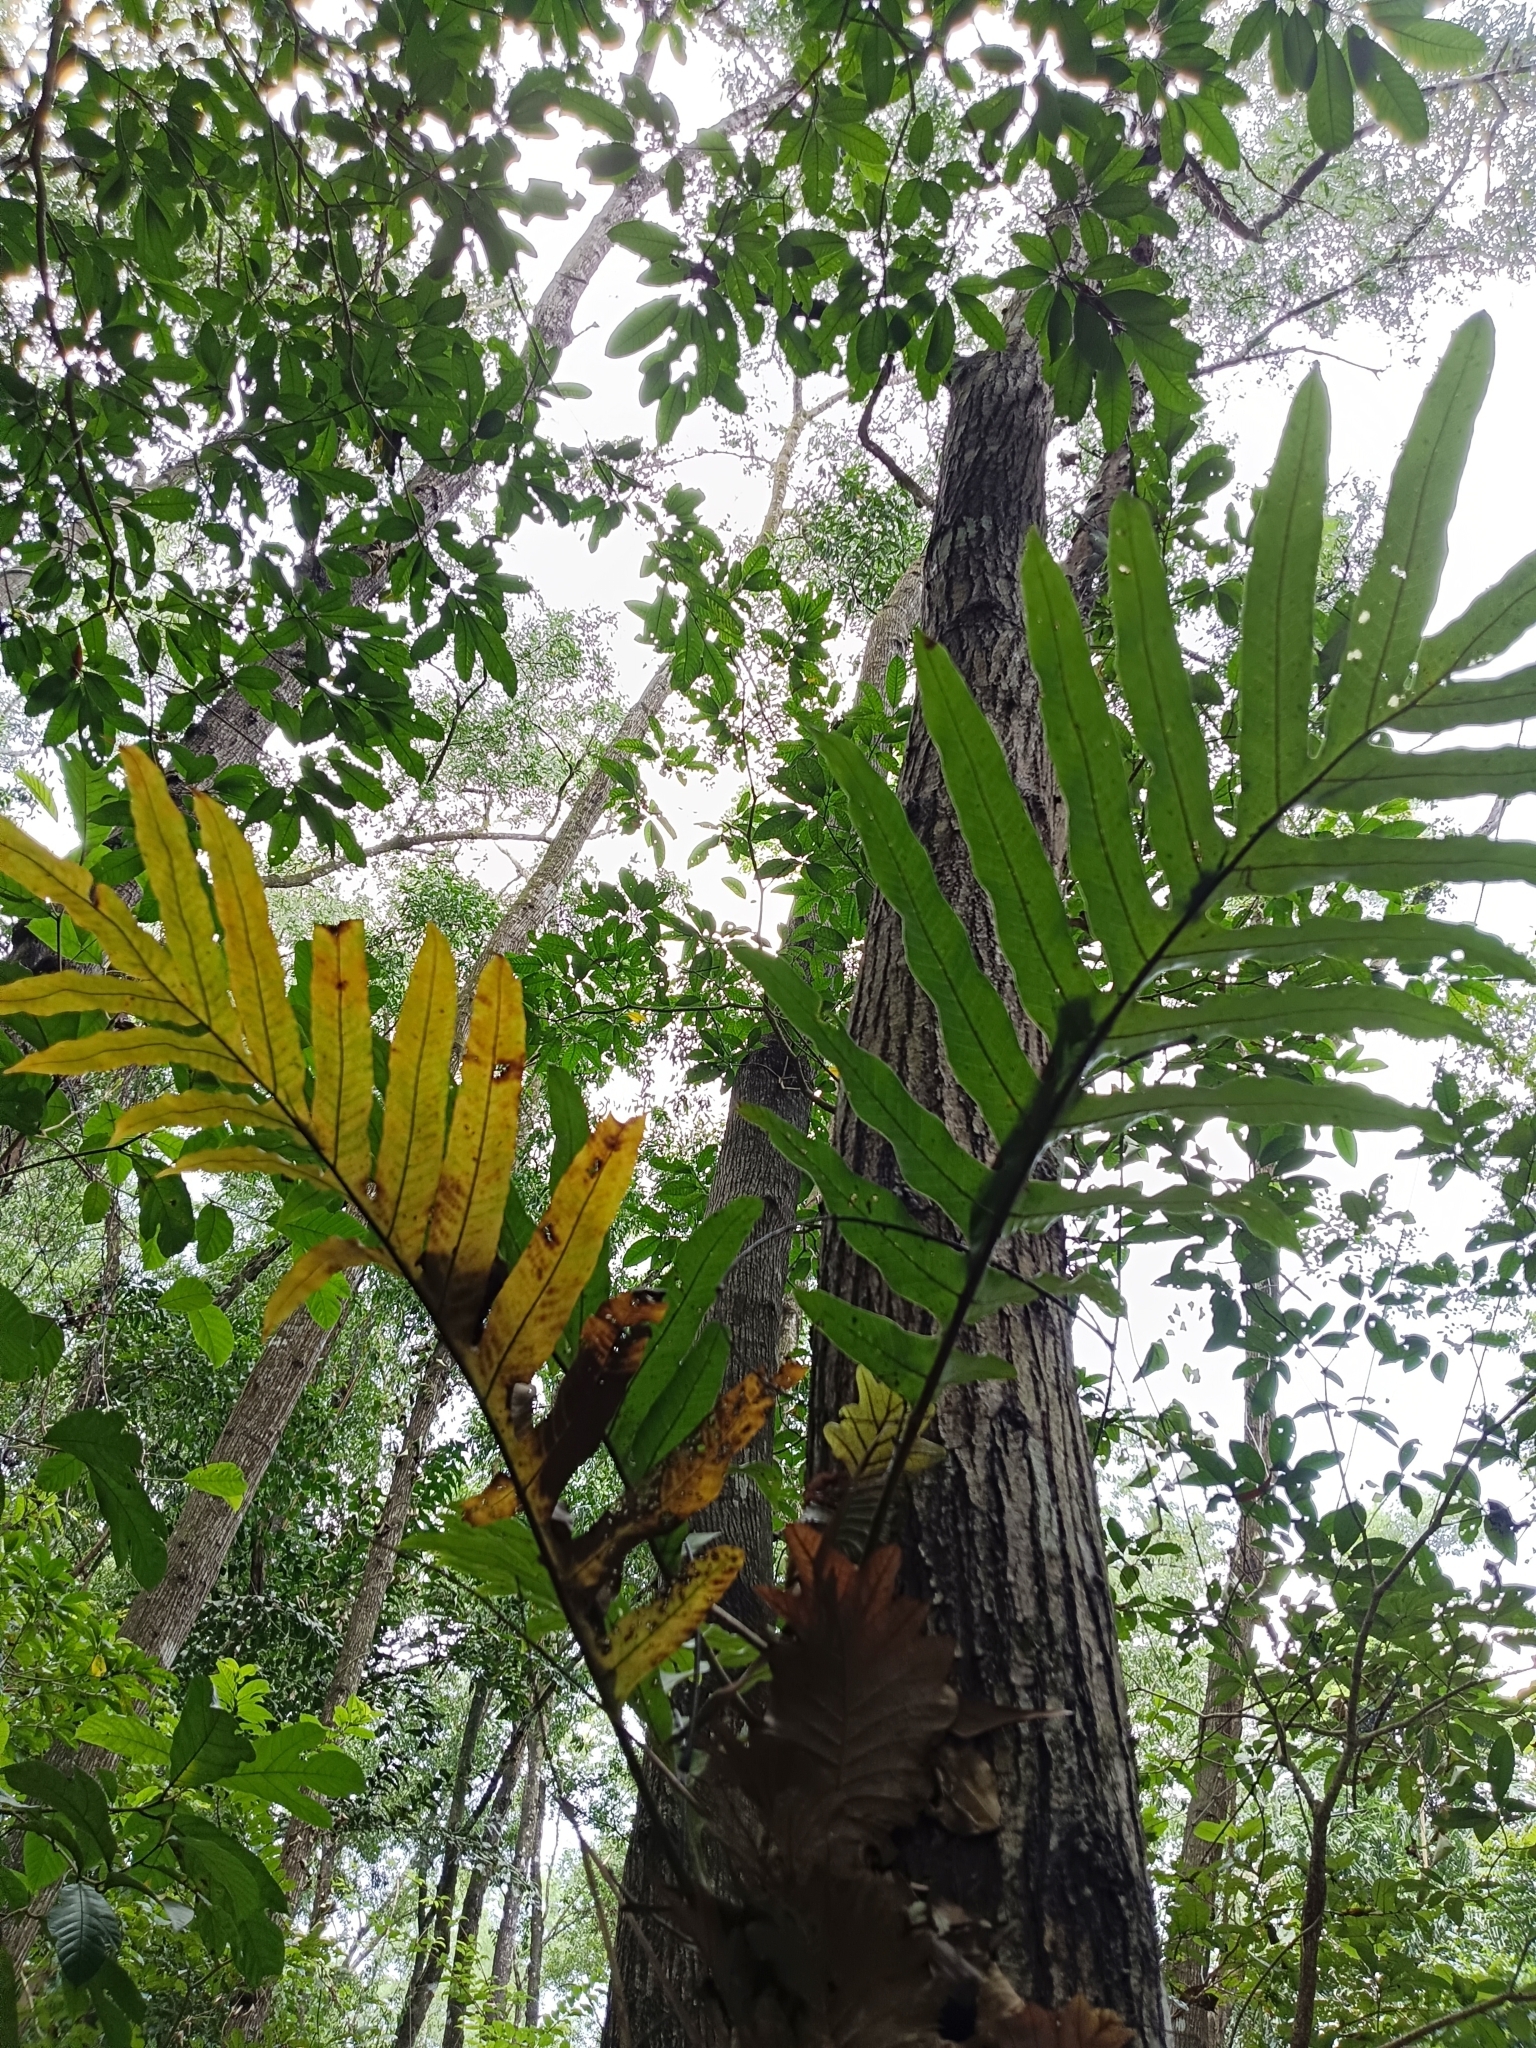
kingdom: Plantae
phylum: Tracheophyta
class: Polypodiopsida
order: Polypodiales
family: Polypodiaceae
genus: Drynaria
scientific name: Drynaria quercifolia
